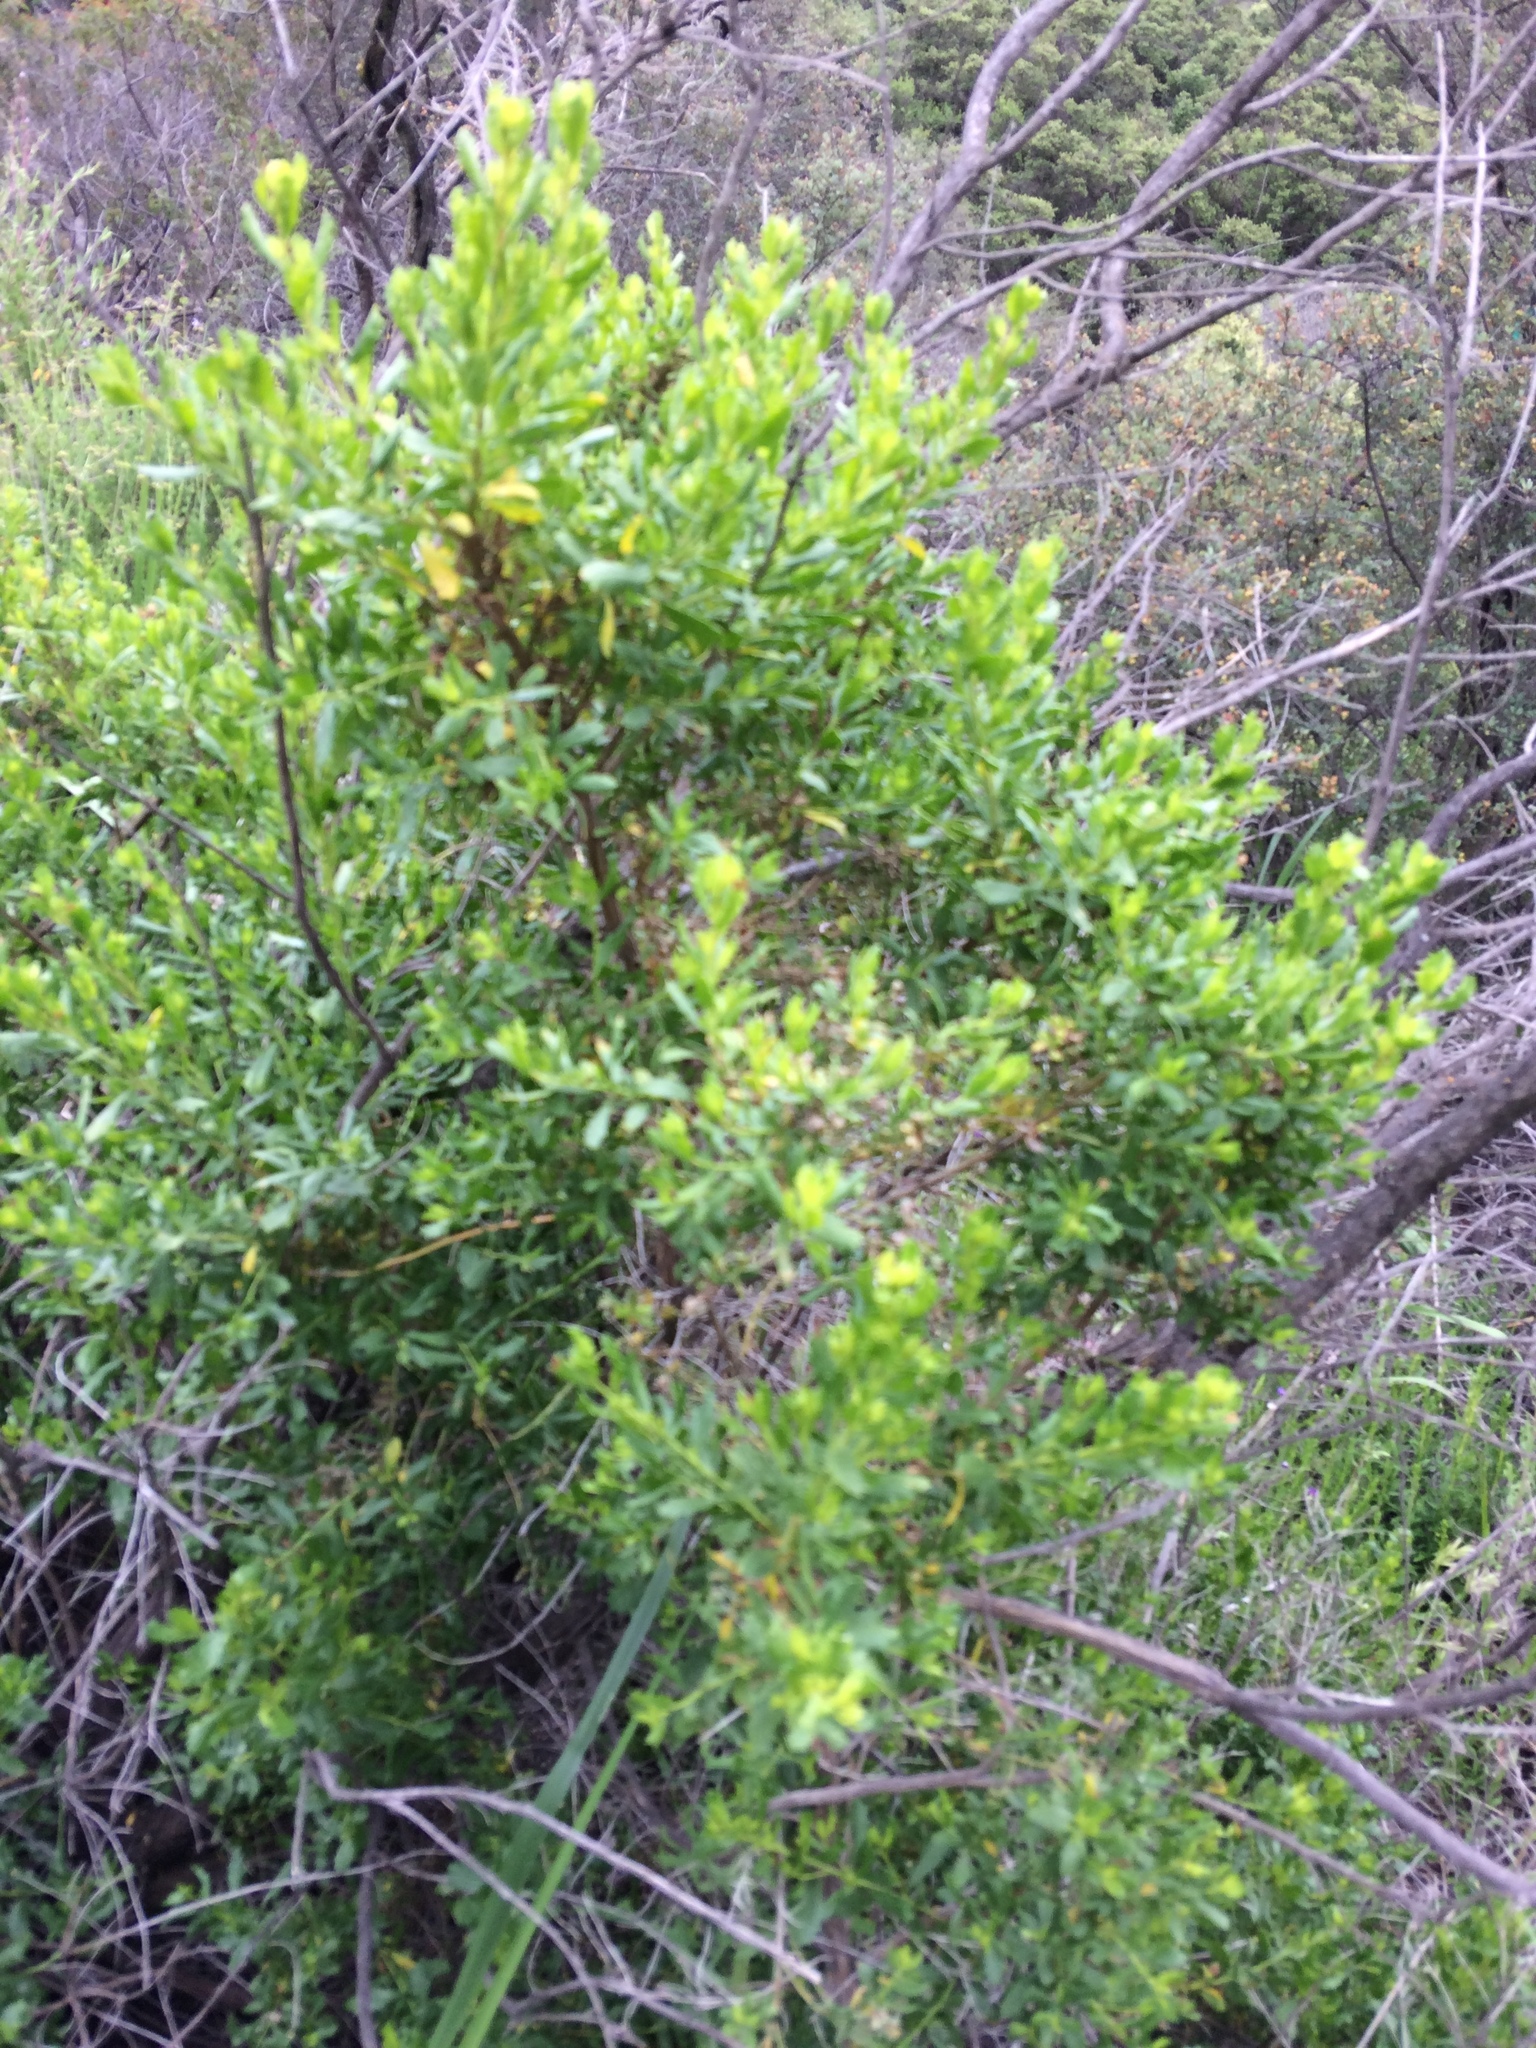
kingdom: Plantae
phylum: Tracheophyta
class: Magnoliopsida
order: Asterales
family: Asteraceae
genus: Baccharis
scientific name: Baccharis pilularis
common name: Coyotebrush
